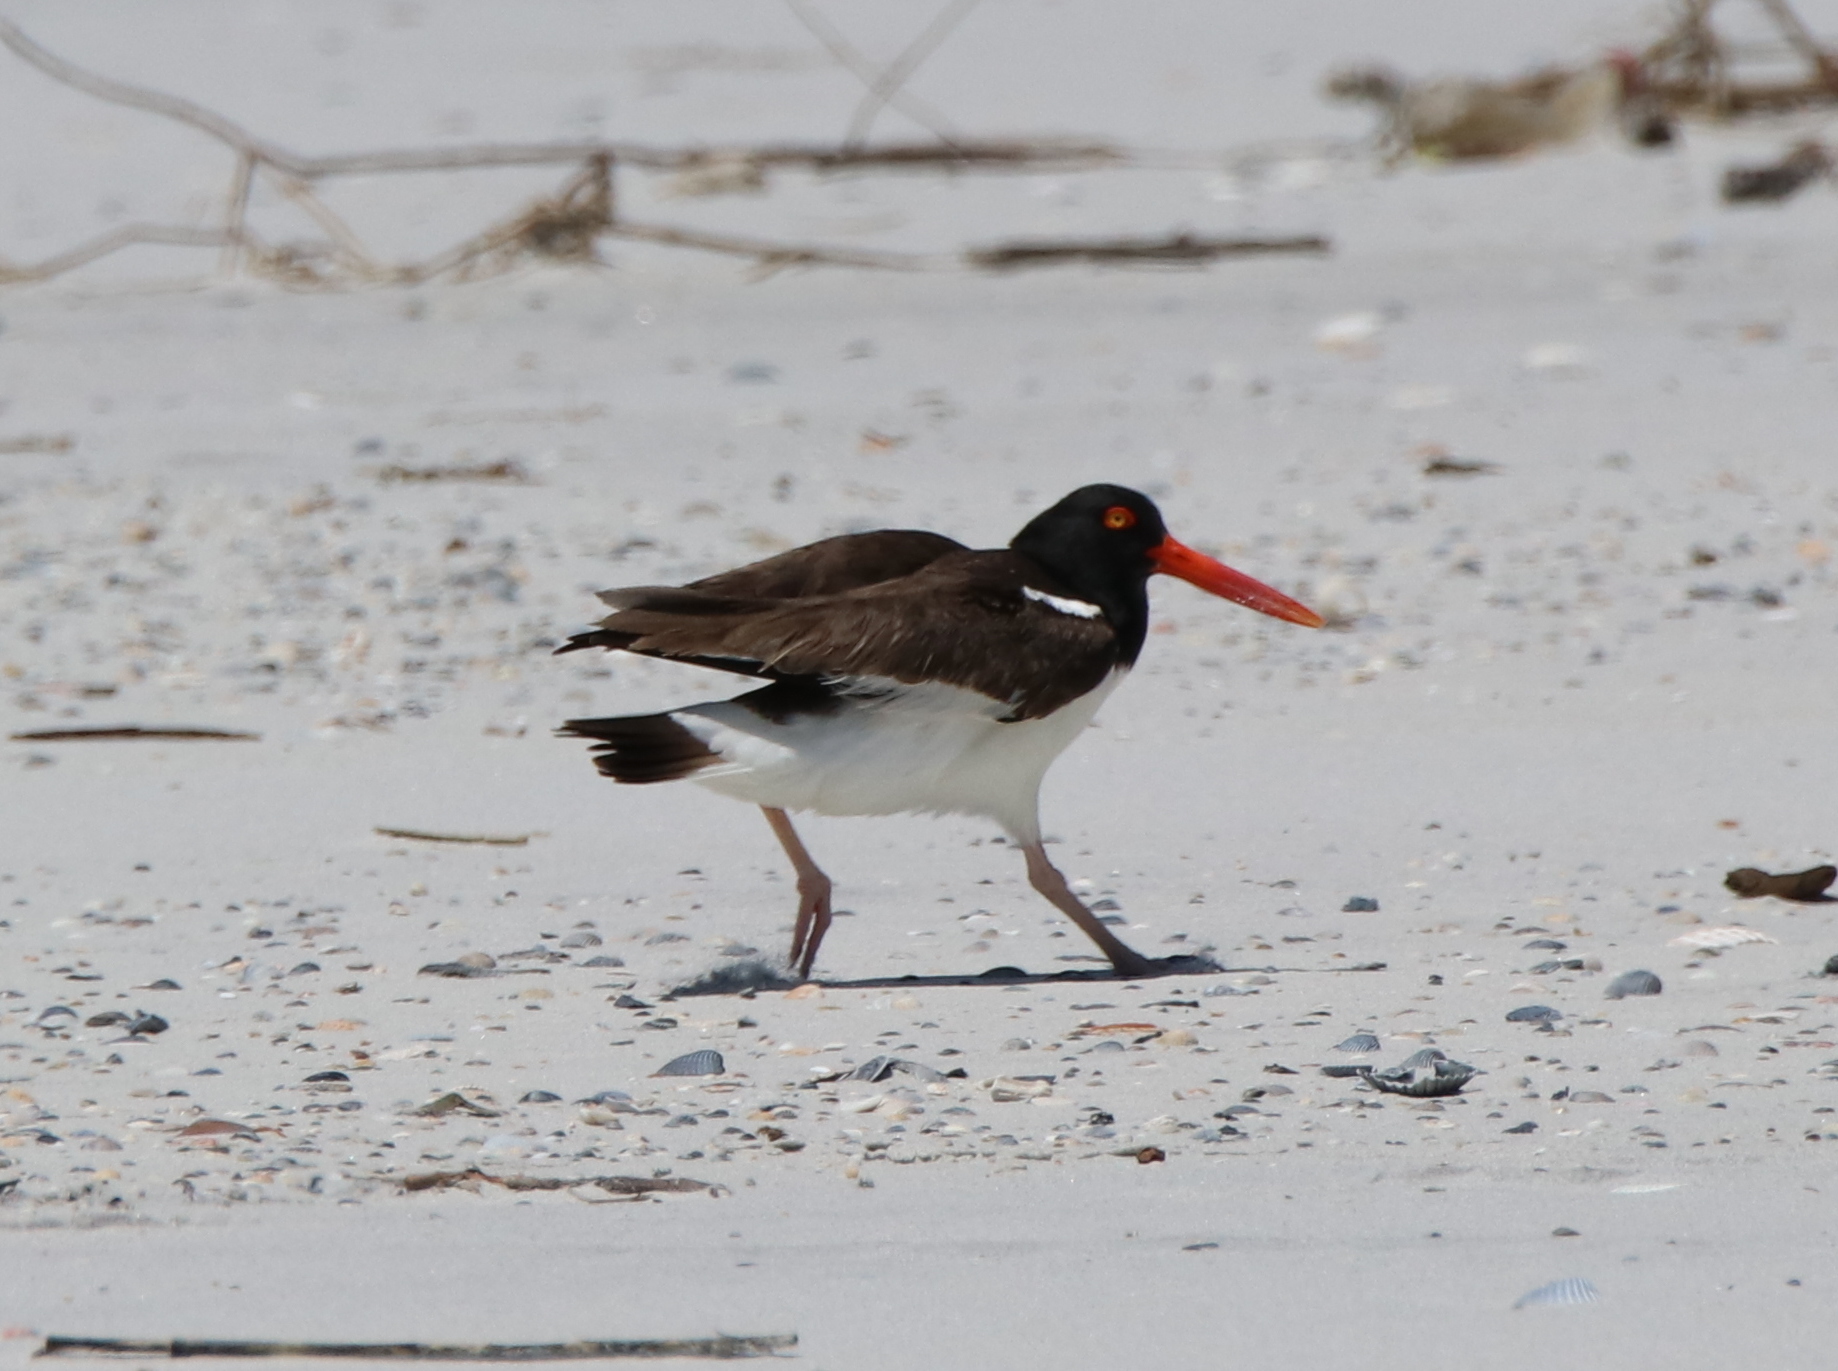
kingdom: Animalia
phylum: Chordata
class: Aves
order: Charadriiformes
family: Haematopodidae
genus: Haematopus
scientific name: Haematopus palliatus
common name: American oystercatcher
